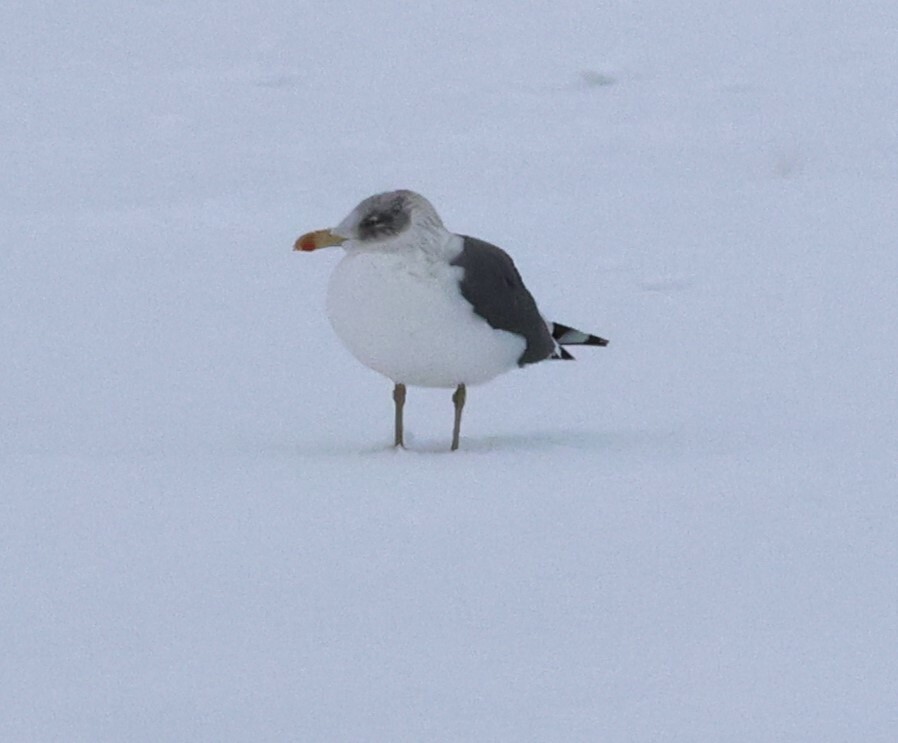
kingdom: Animalia
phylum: Chordata
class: Aves
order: Charadriiformes
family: Laridae
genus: Larus
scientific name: Larus fuscus
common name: Lesser black-backed gull
